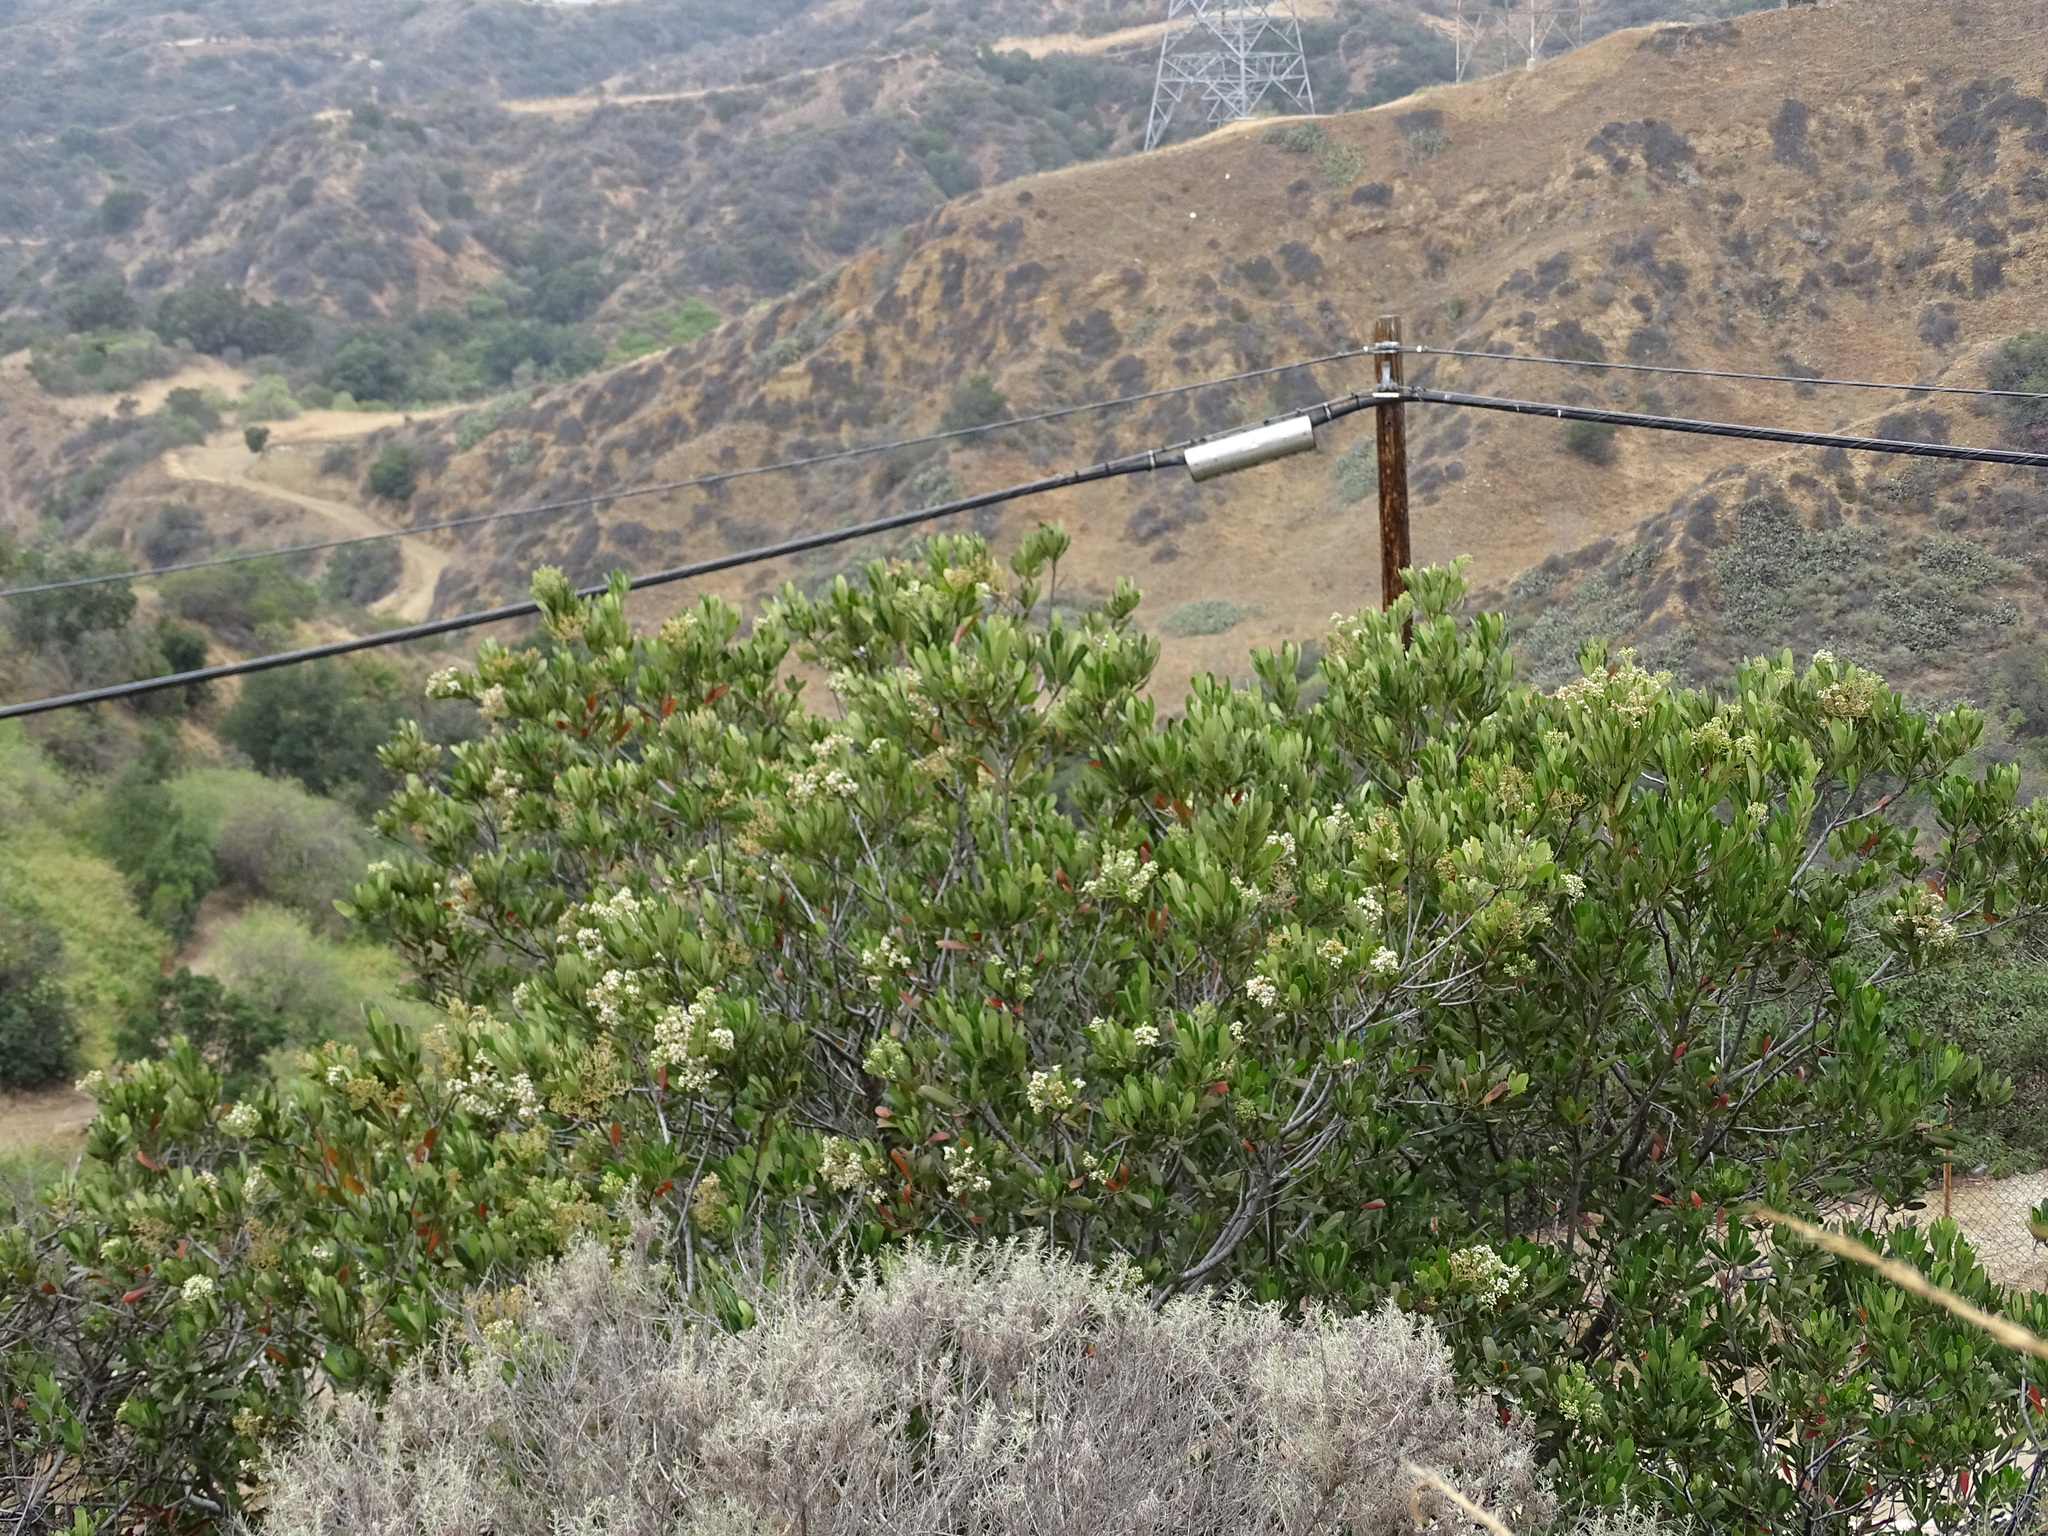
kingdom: Plantae
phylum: Tracheophyta
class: Magnoliopsida
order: Rosales
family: Rosaceae
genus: Heteromeles
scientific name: Heteromeles arbutifolia
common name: California-holly
